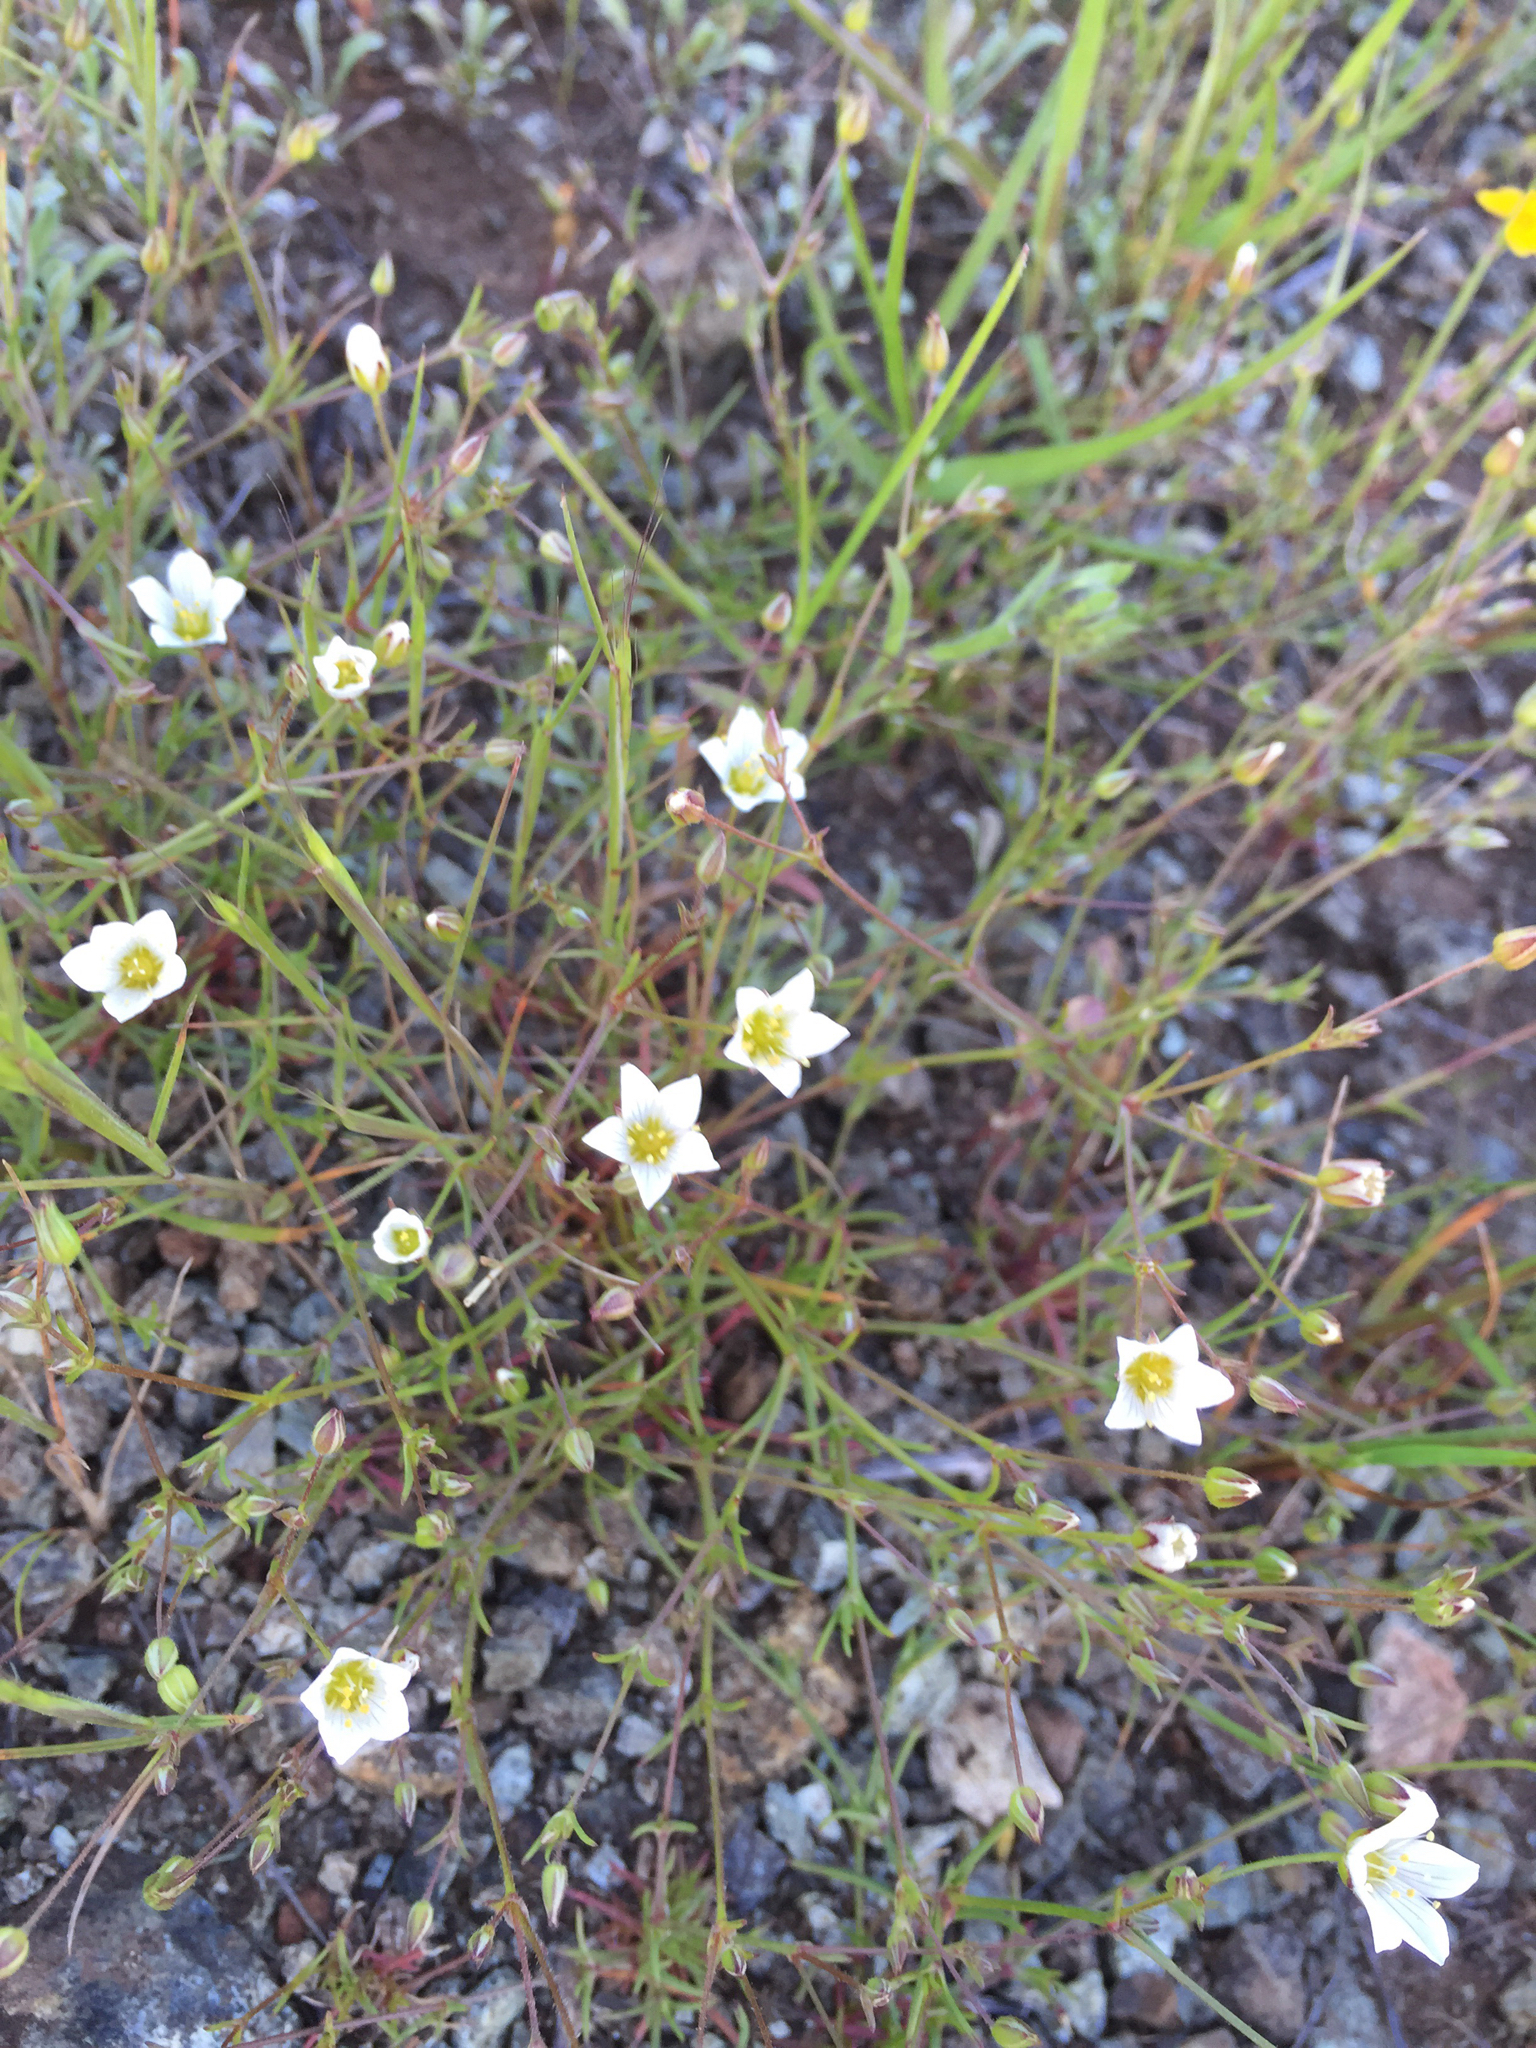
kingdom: Plantae
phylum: Tracheophyta
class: Magnoliopsida
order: Caryophyllales
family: Caryophyllaceae
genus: Sabulina
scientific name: Sabulina douglasii
